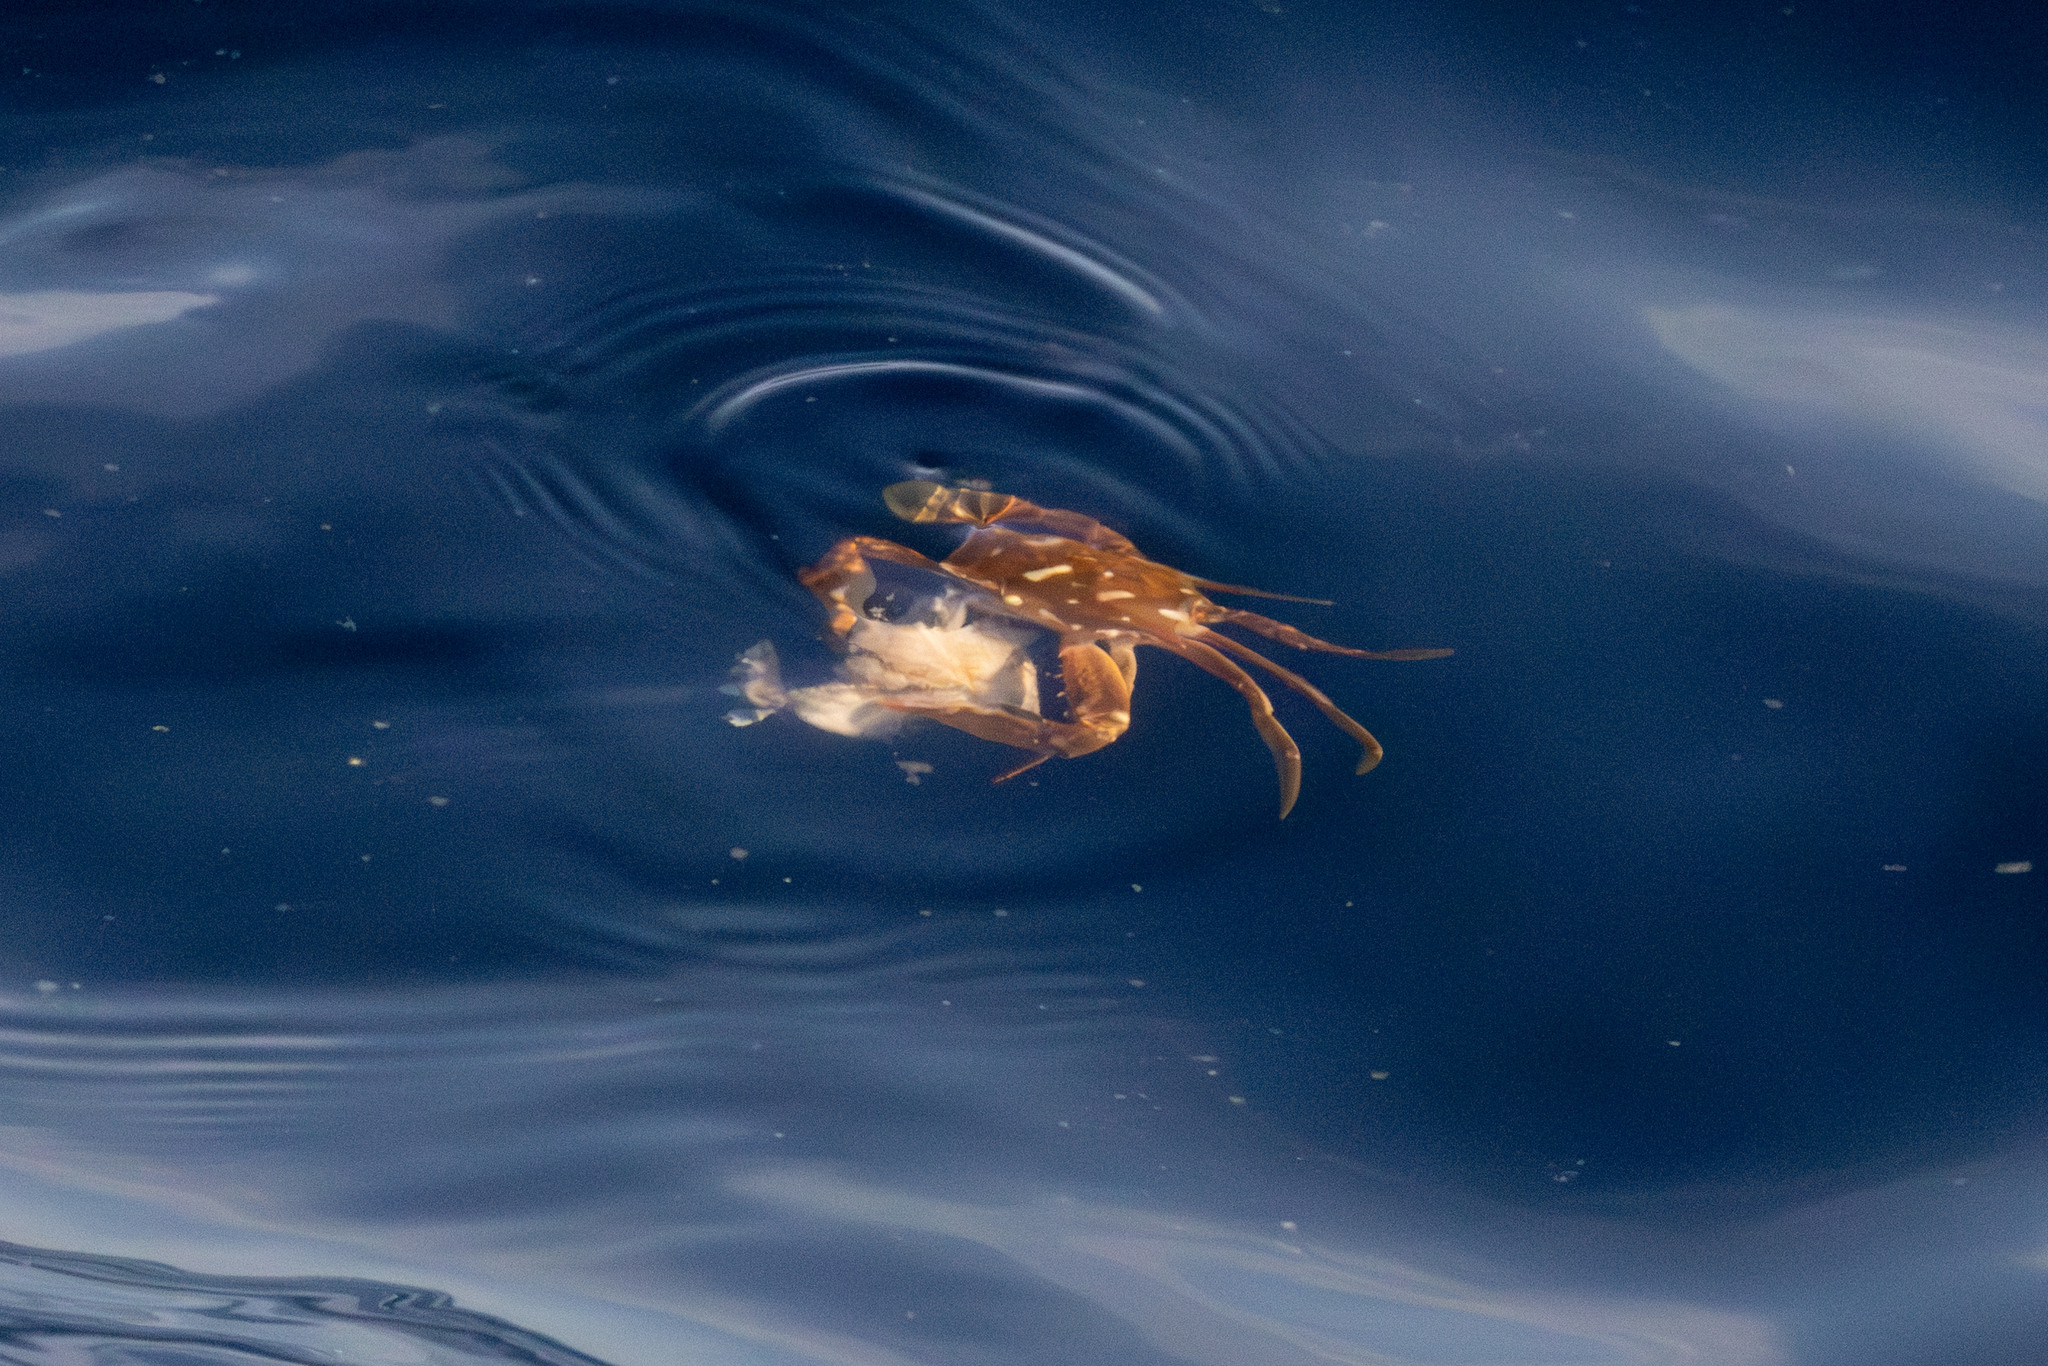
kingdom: Animalia
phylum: Arthropoda
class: Malacostraca
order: Decapoda
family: Portunidae
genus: Portunus
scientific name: Portunus sayi
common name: Sargassum crab
